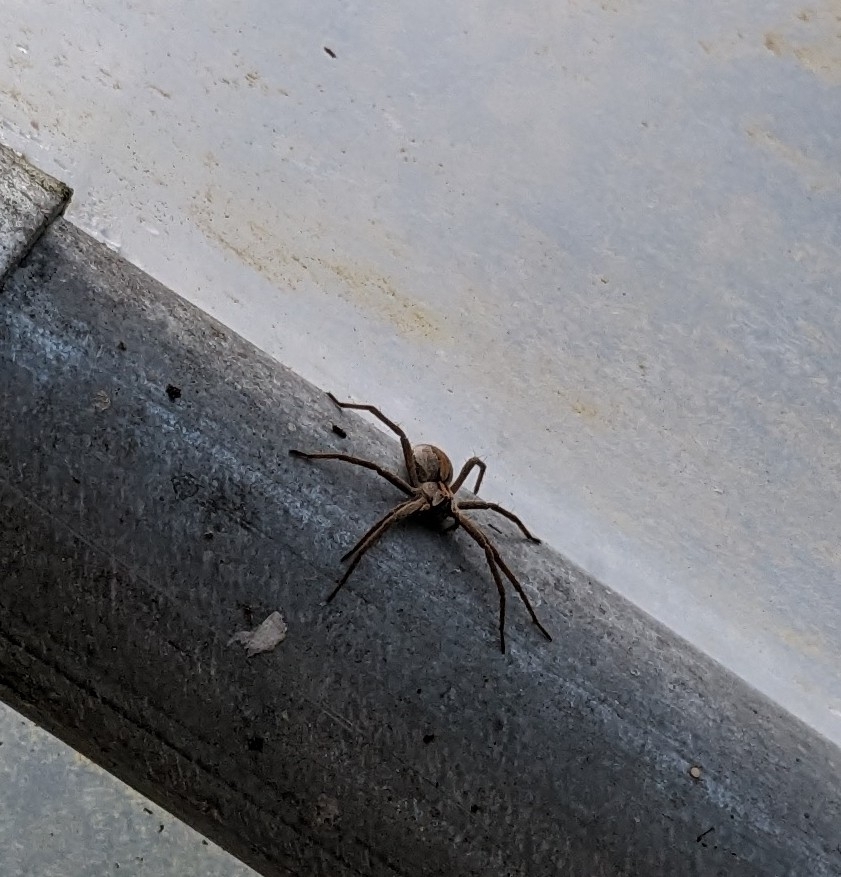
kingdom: Animalia
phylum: Arthropoda
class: Arachnida
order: Araneae
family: Pisauridae
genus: Pisaura
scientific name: Pisaura mirabilis
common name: Tent spider
